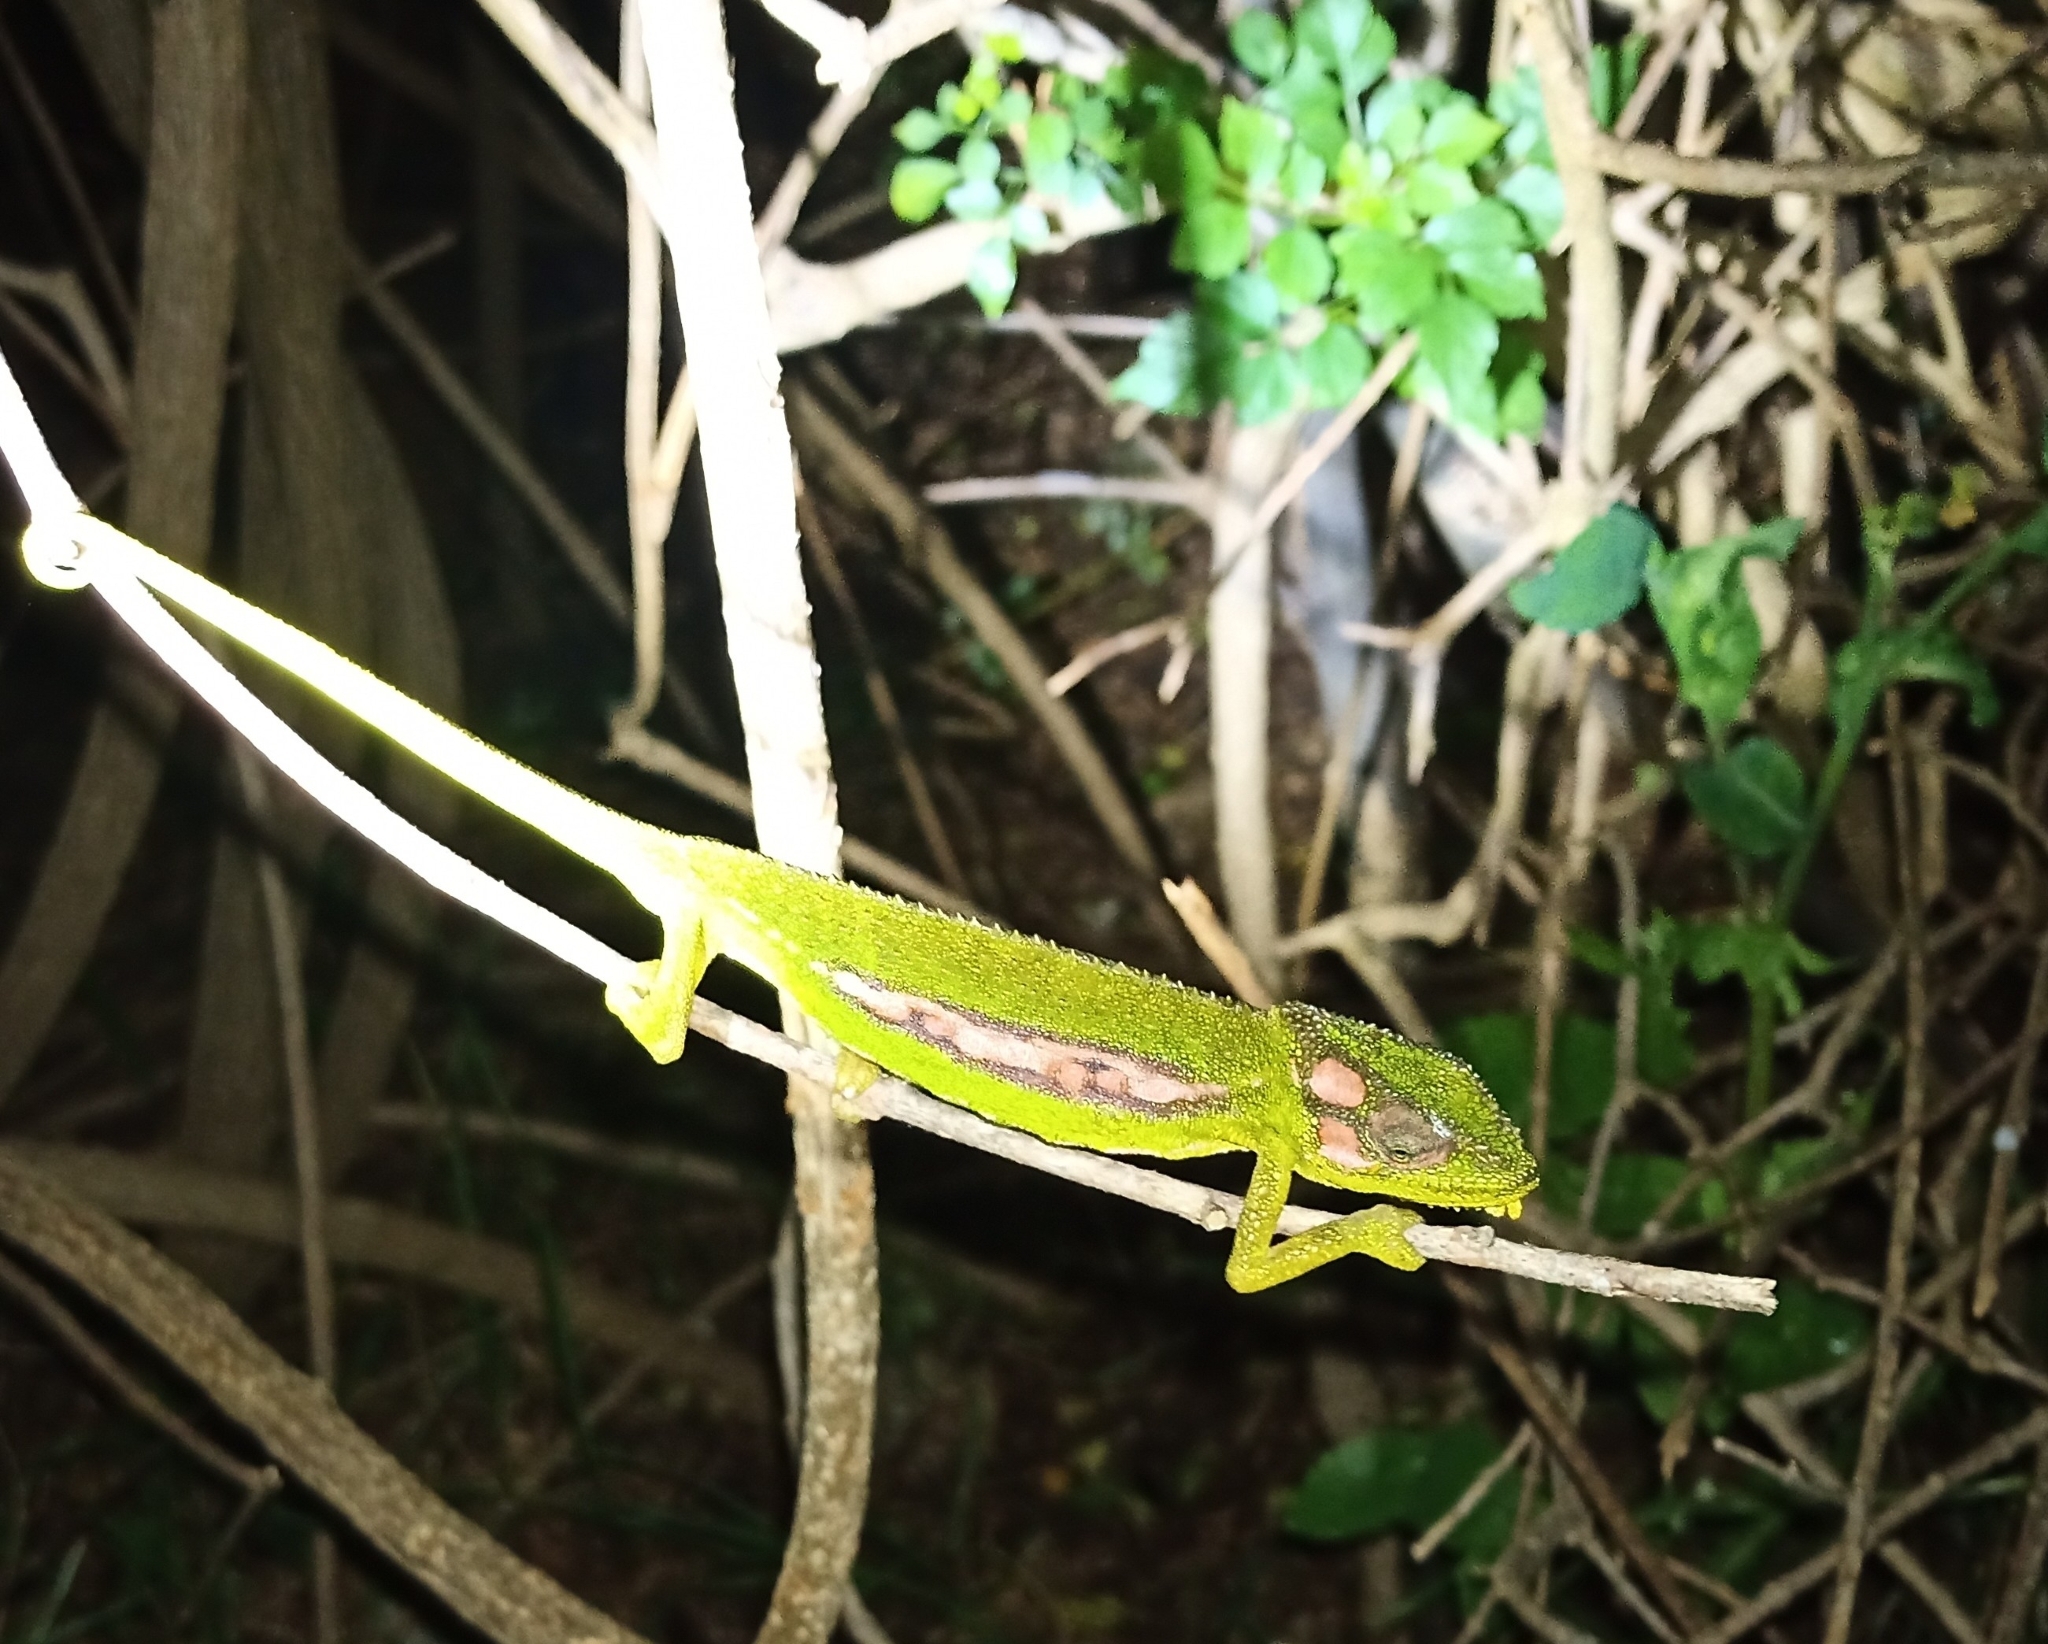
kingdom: Animalia
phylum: Chordata
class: Squamata
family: Chamaeleonidae
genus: Bradypodion
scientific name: Bradypodion pumilum
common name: Cape dwarf chameleon
